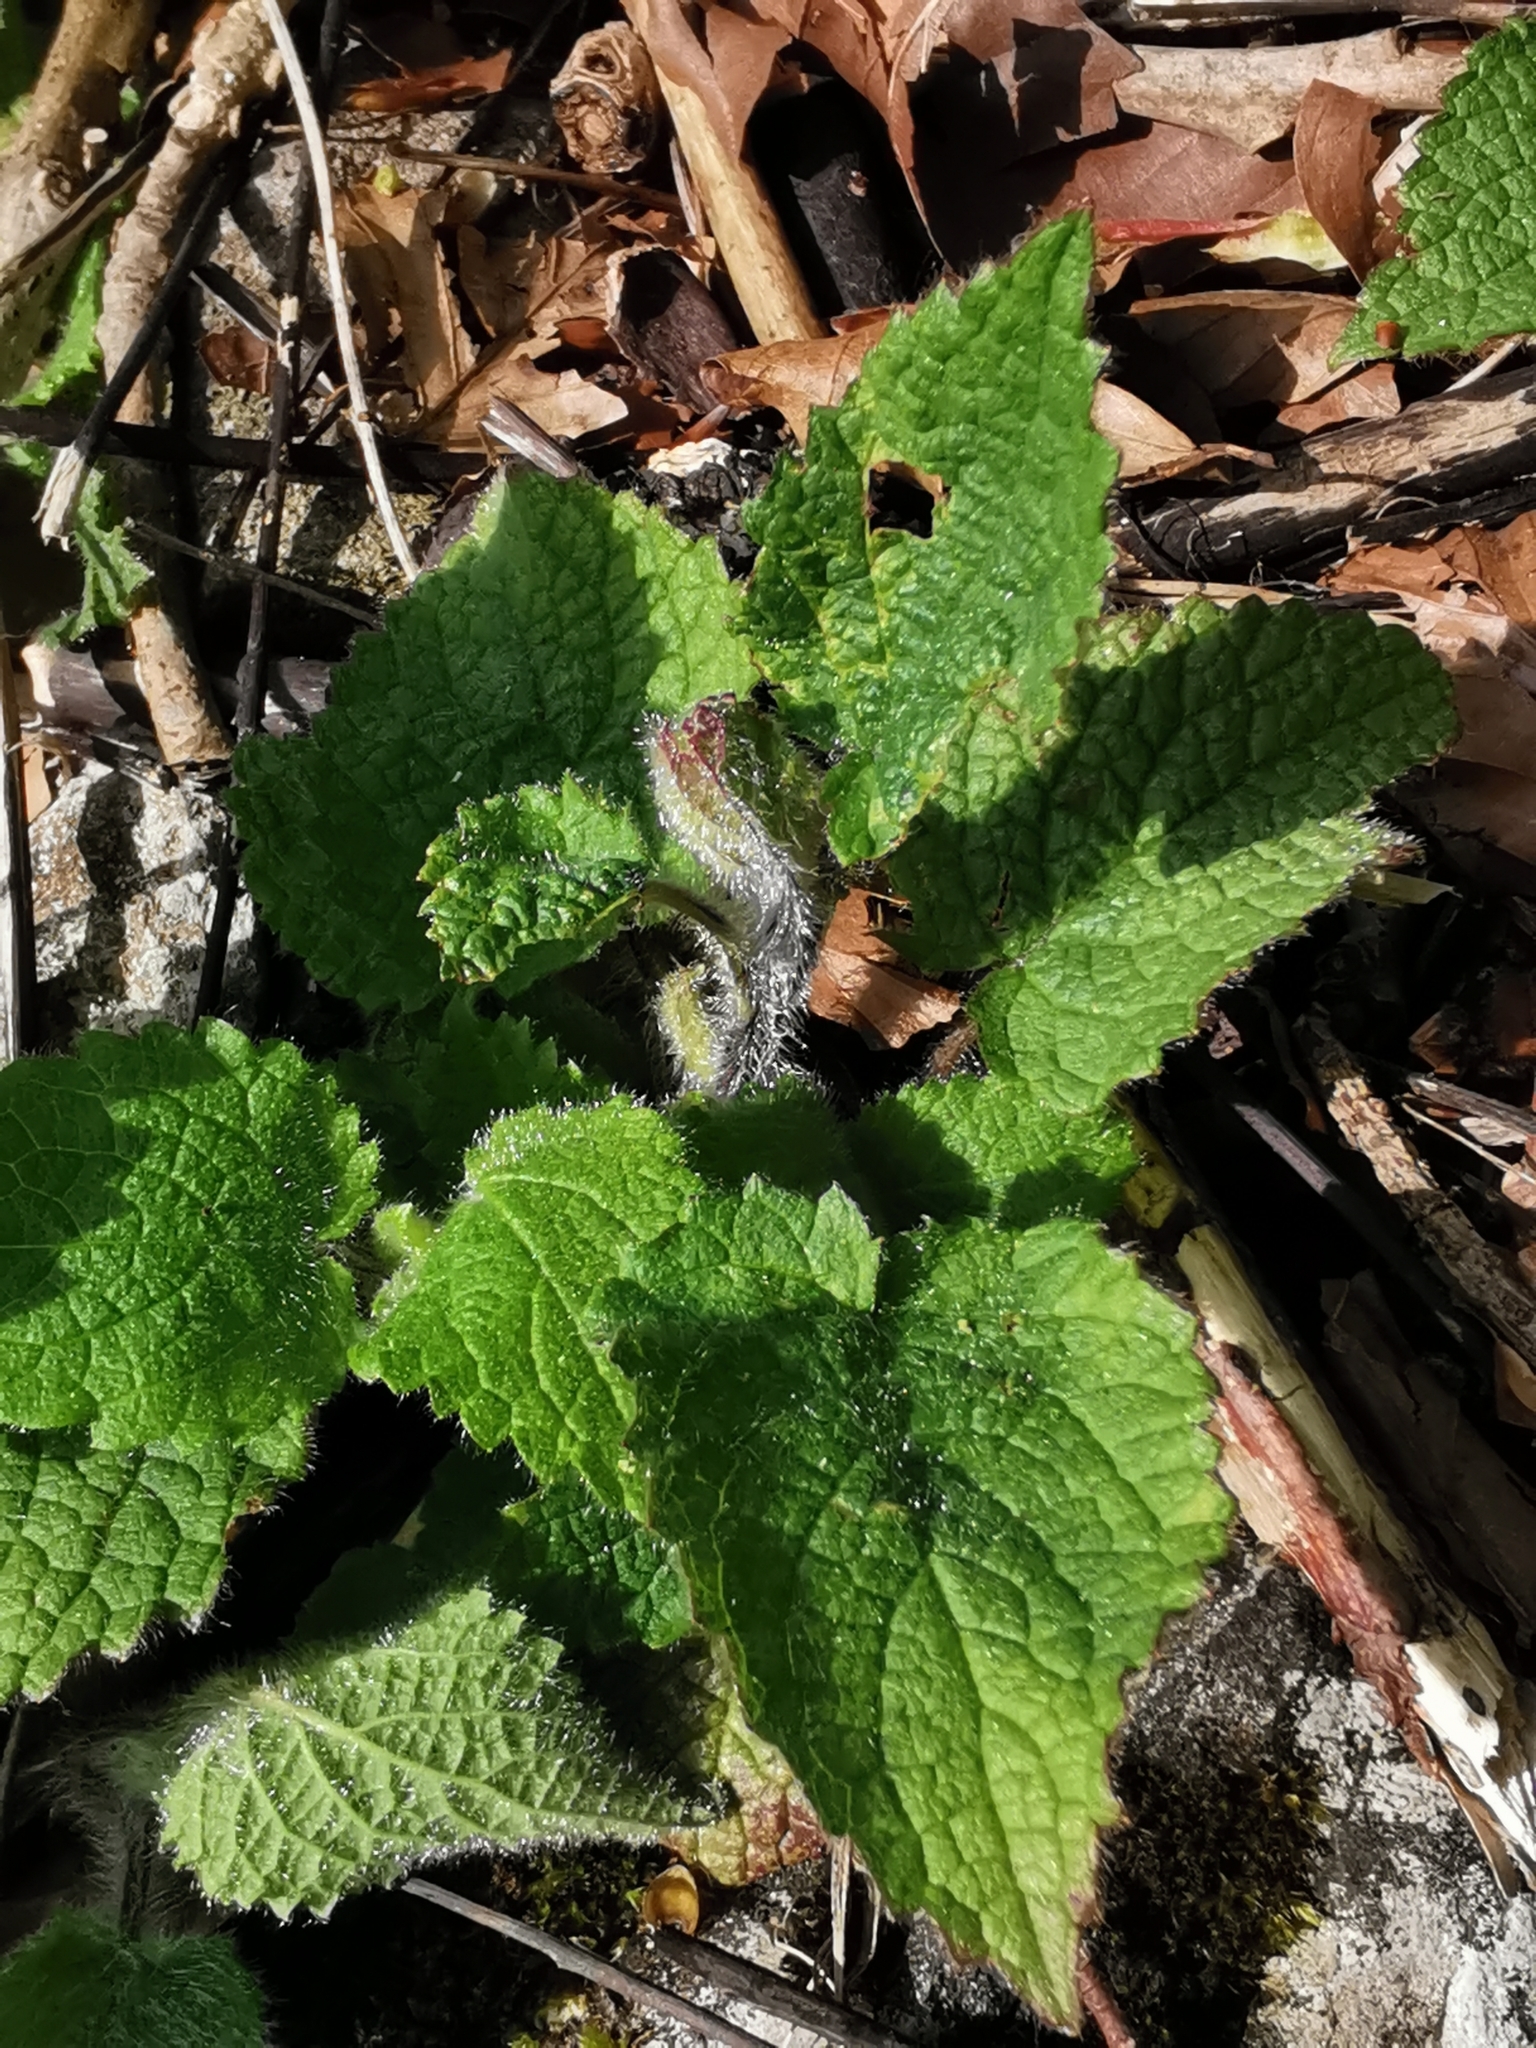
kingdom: Plantae
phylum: Tracheophyta
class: Magnoliopsida
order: Lamiales
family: Lamiaceae
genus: Stachys
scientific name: Stachys sylvatica
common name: Hedge woundwort
